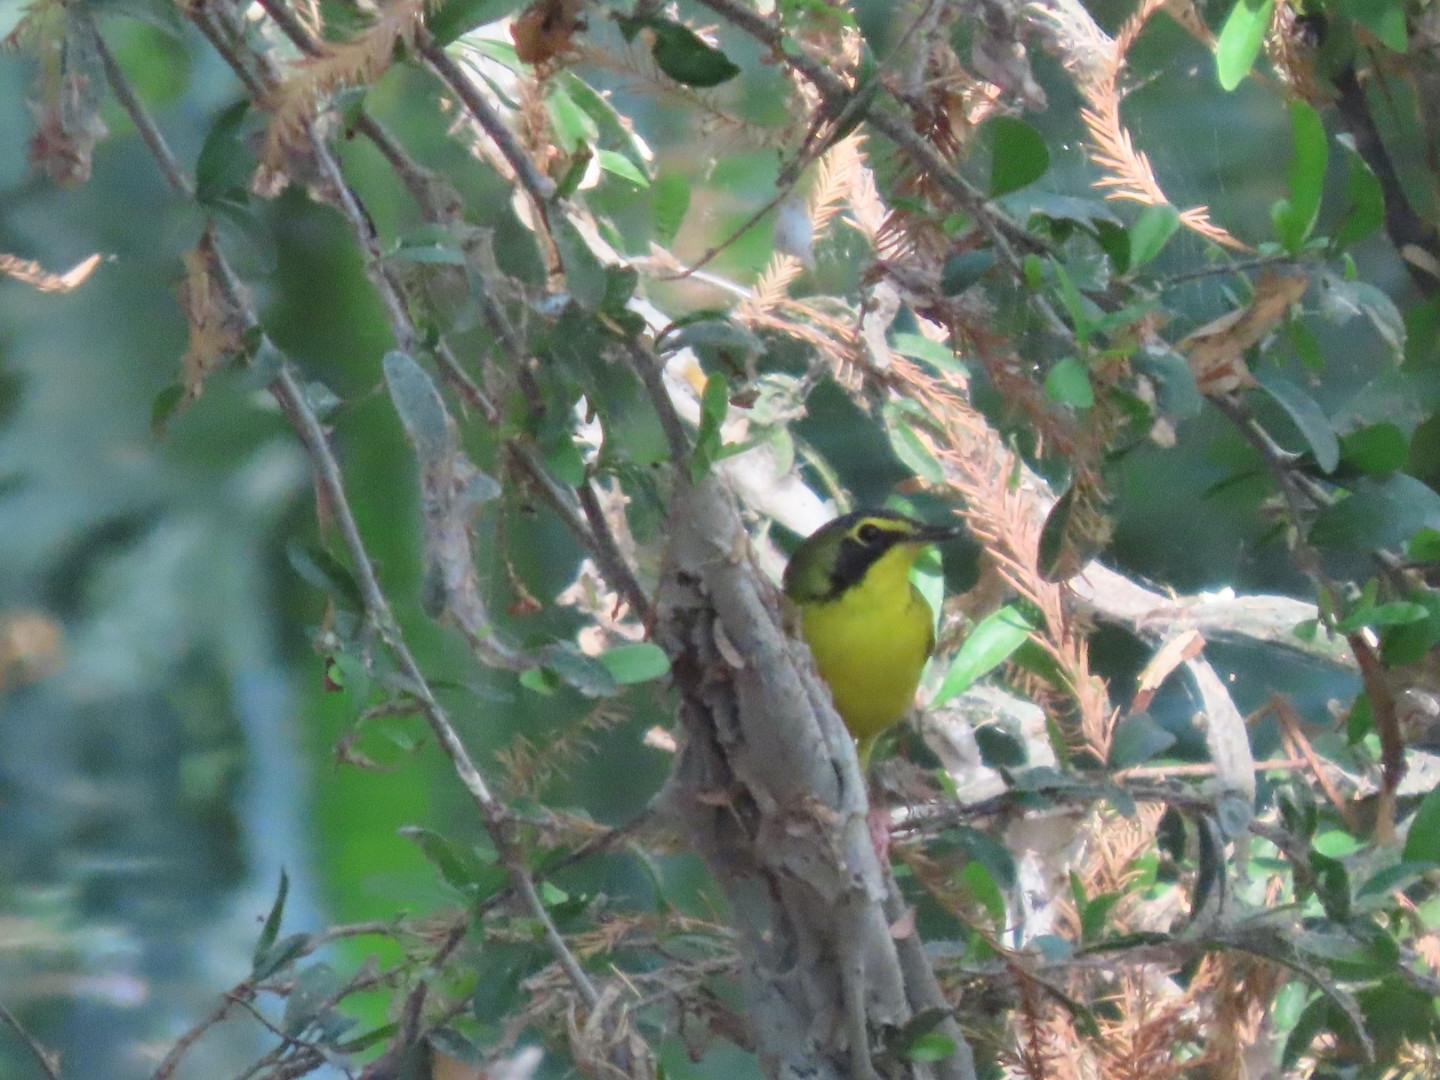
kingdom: Animalia
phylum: Chordata
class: Aves
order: Passeriformes
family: Parulidae
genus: Geothlypis
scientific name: Geothlypis formosa
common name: Kentucky warbler
